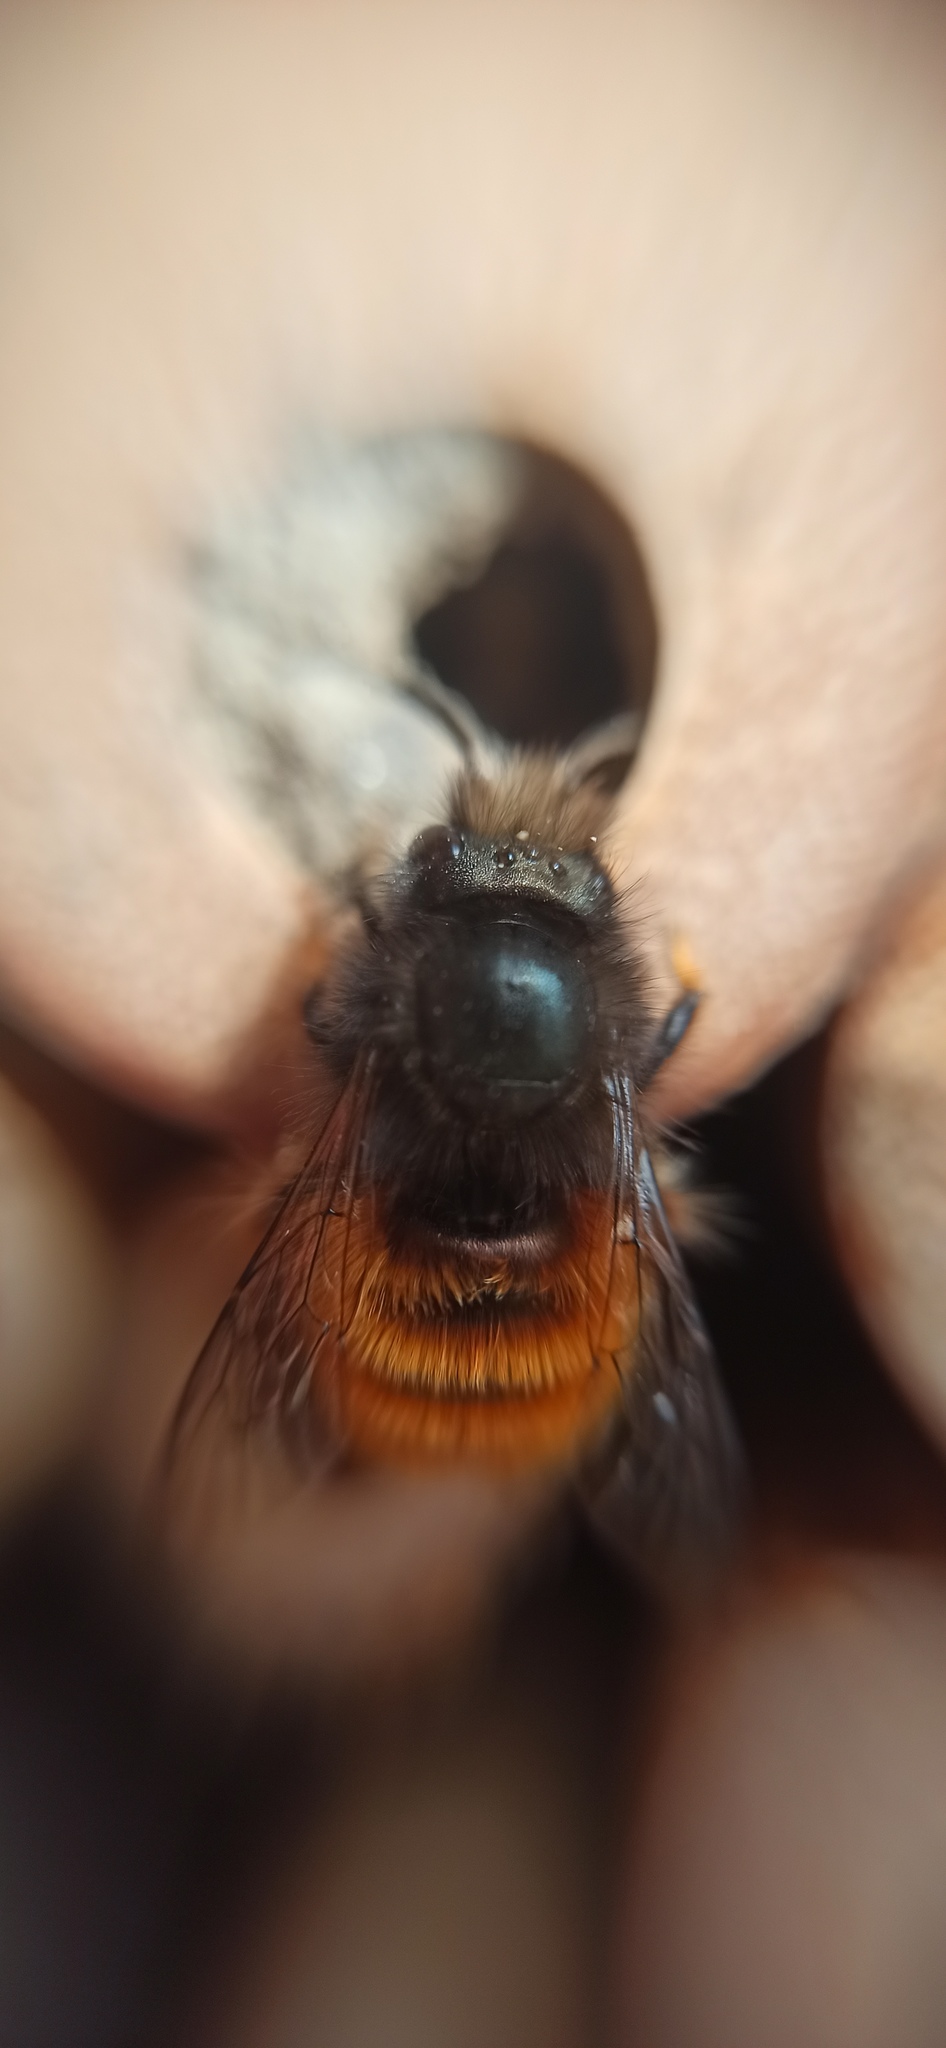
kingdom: Animalia
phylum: Arthropoda
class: Insecta
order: Hymenoptera
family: Megachilidae
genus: Osmia
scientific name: Osmia cornuta
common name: Mason bee
